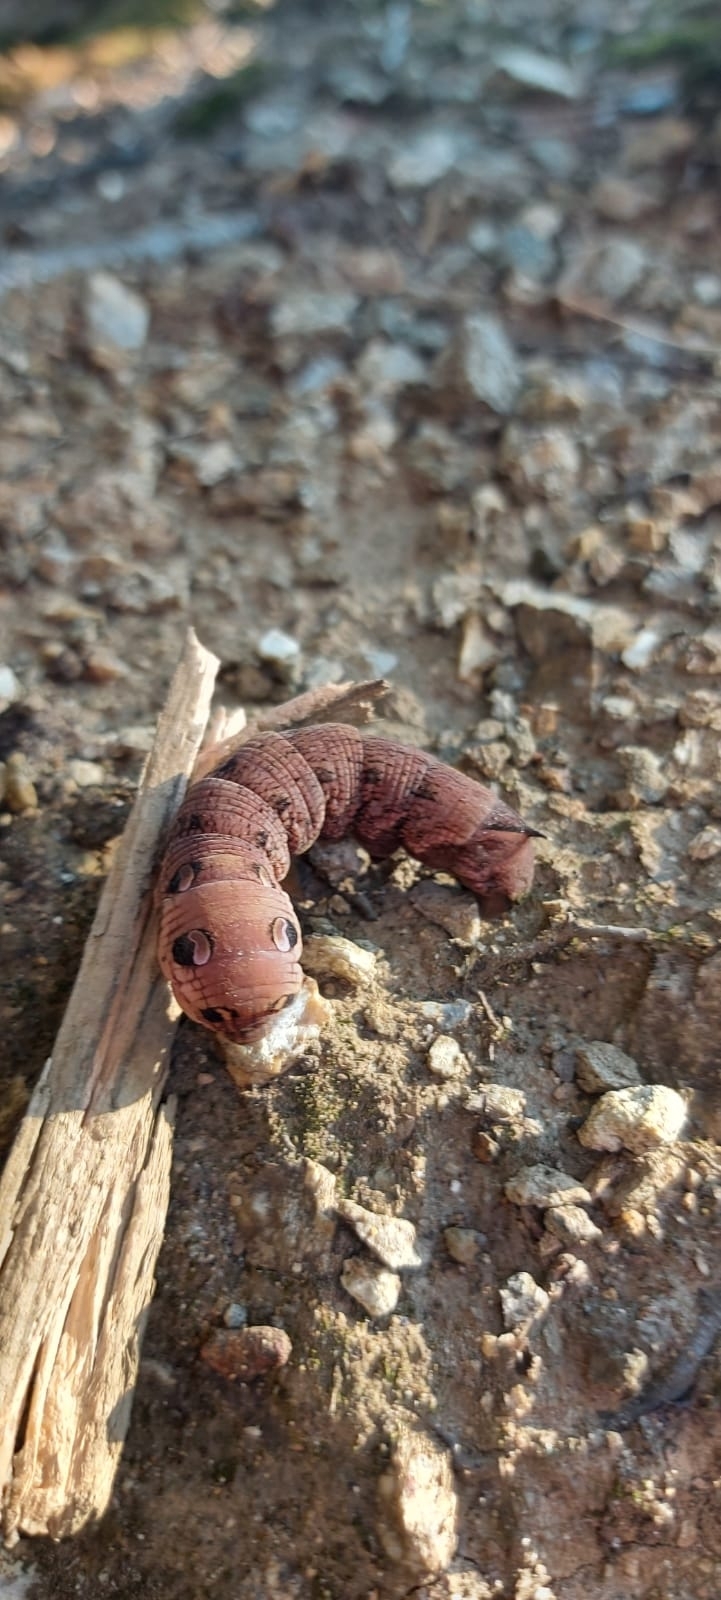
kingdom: Animalia
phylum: Arthropoda
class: Insecta
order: Lepidoptera
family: Sphingidae
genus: Deilephila
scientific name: Deilephila elpenor
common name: Elephant hawk-moth
